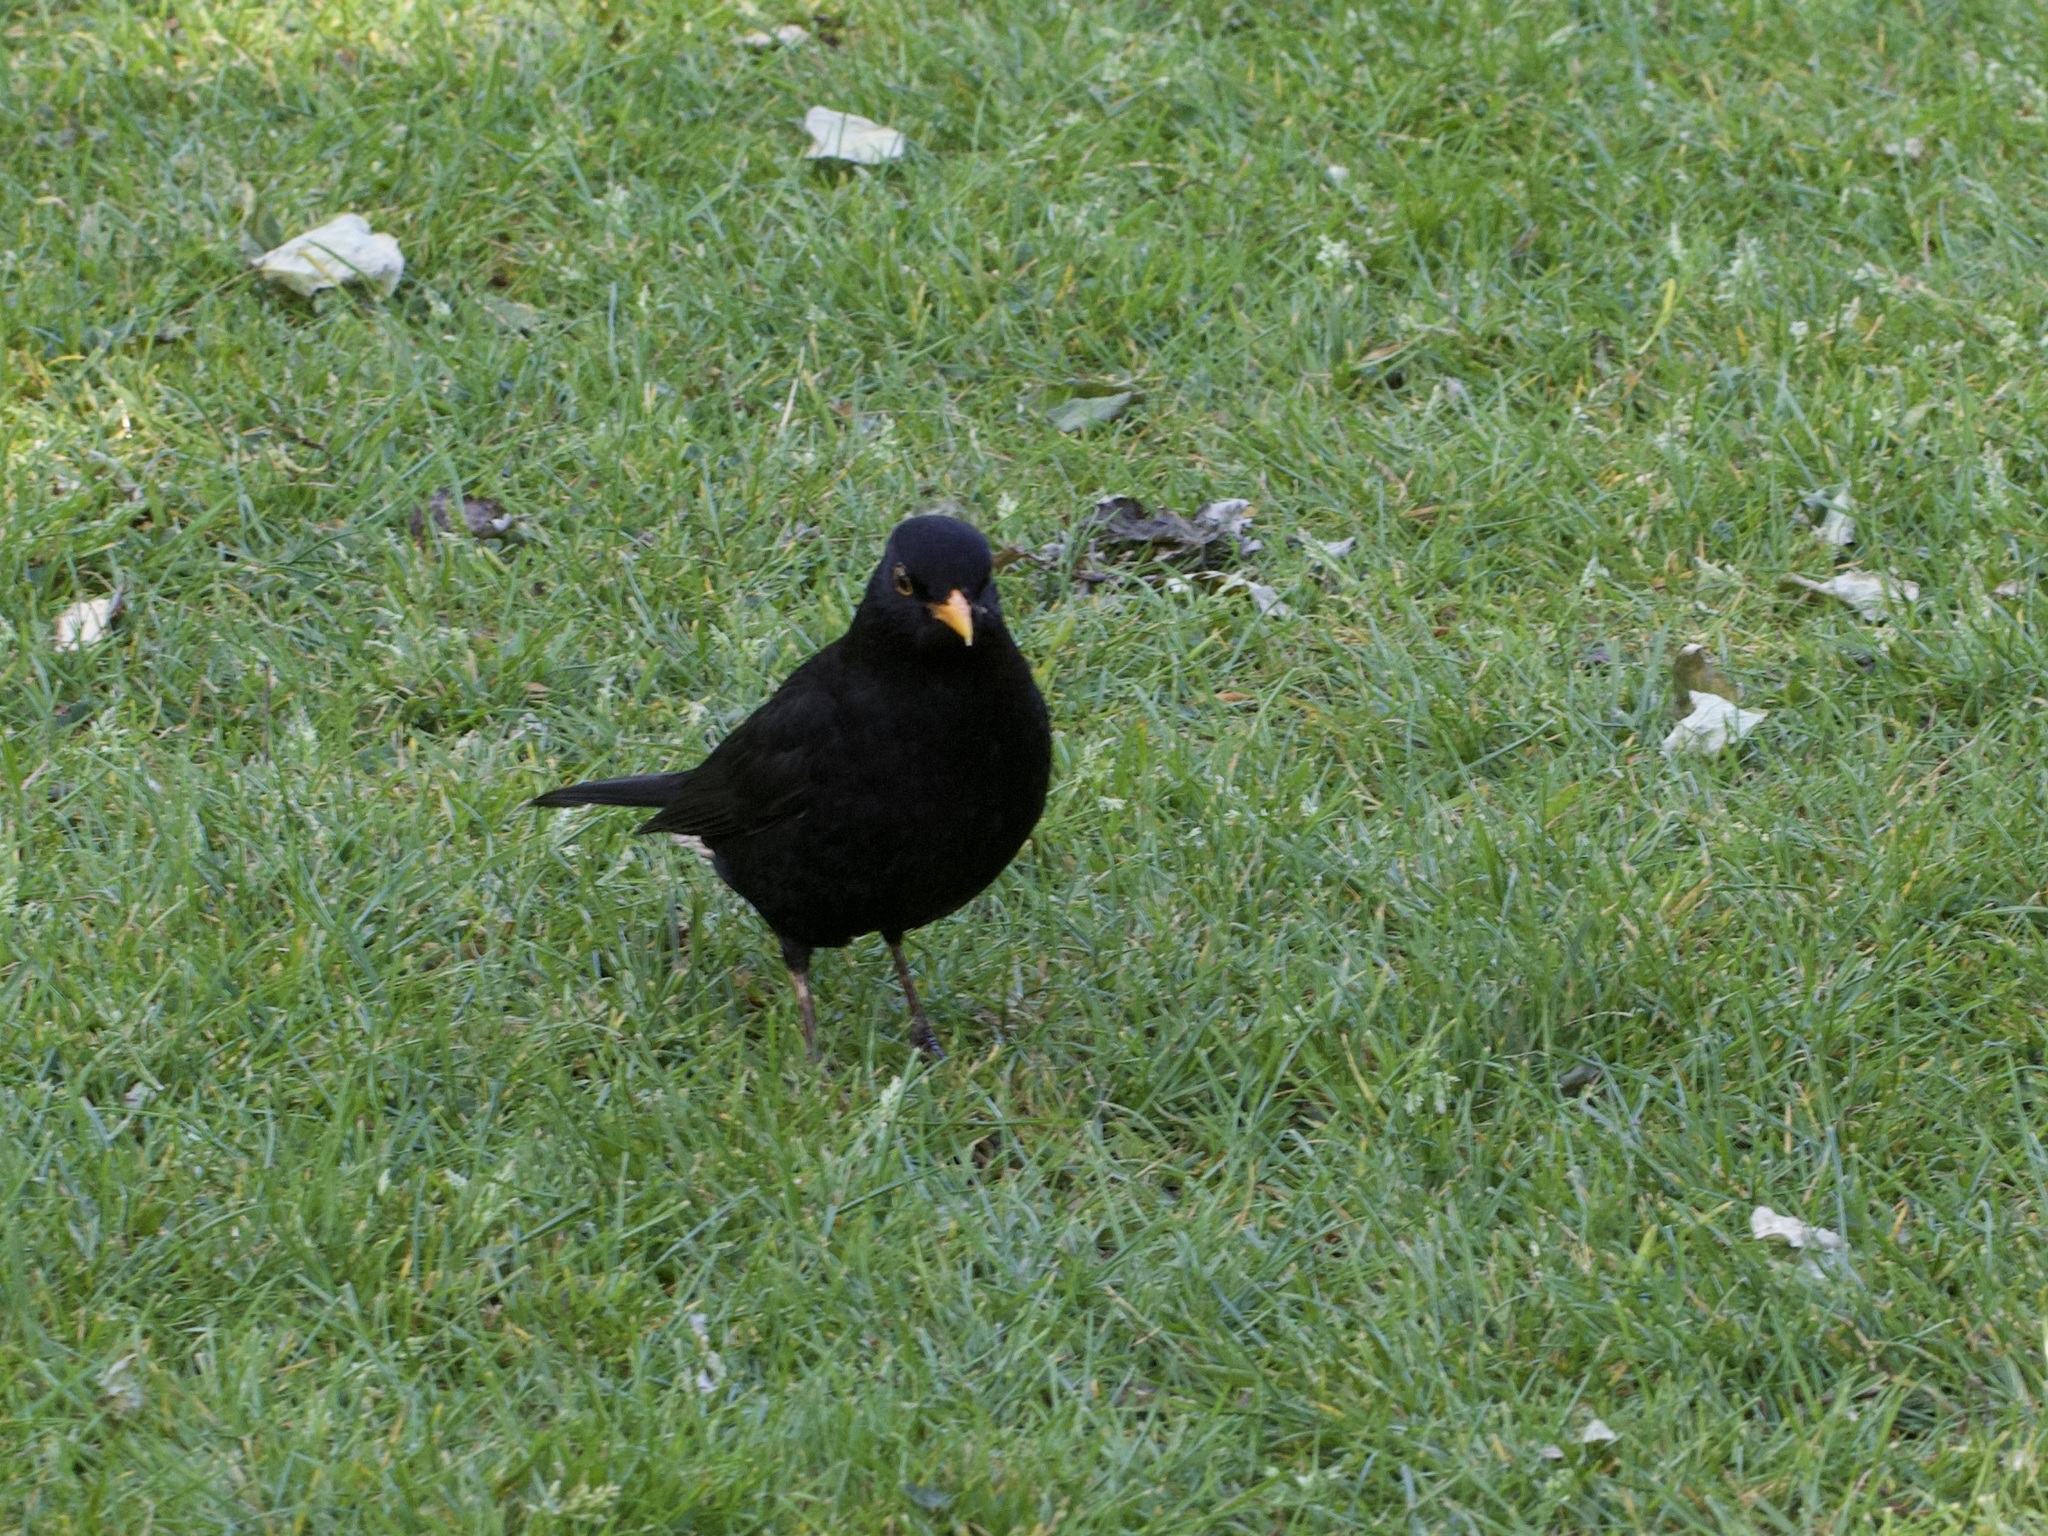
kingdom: Animalia
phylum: Chordata
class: Aves
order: Passeriformes
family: Turdidae
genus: Turdus
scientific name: Turdus merula
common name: Common blackbird
